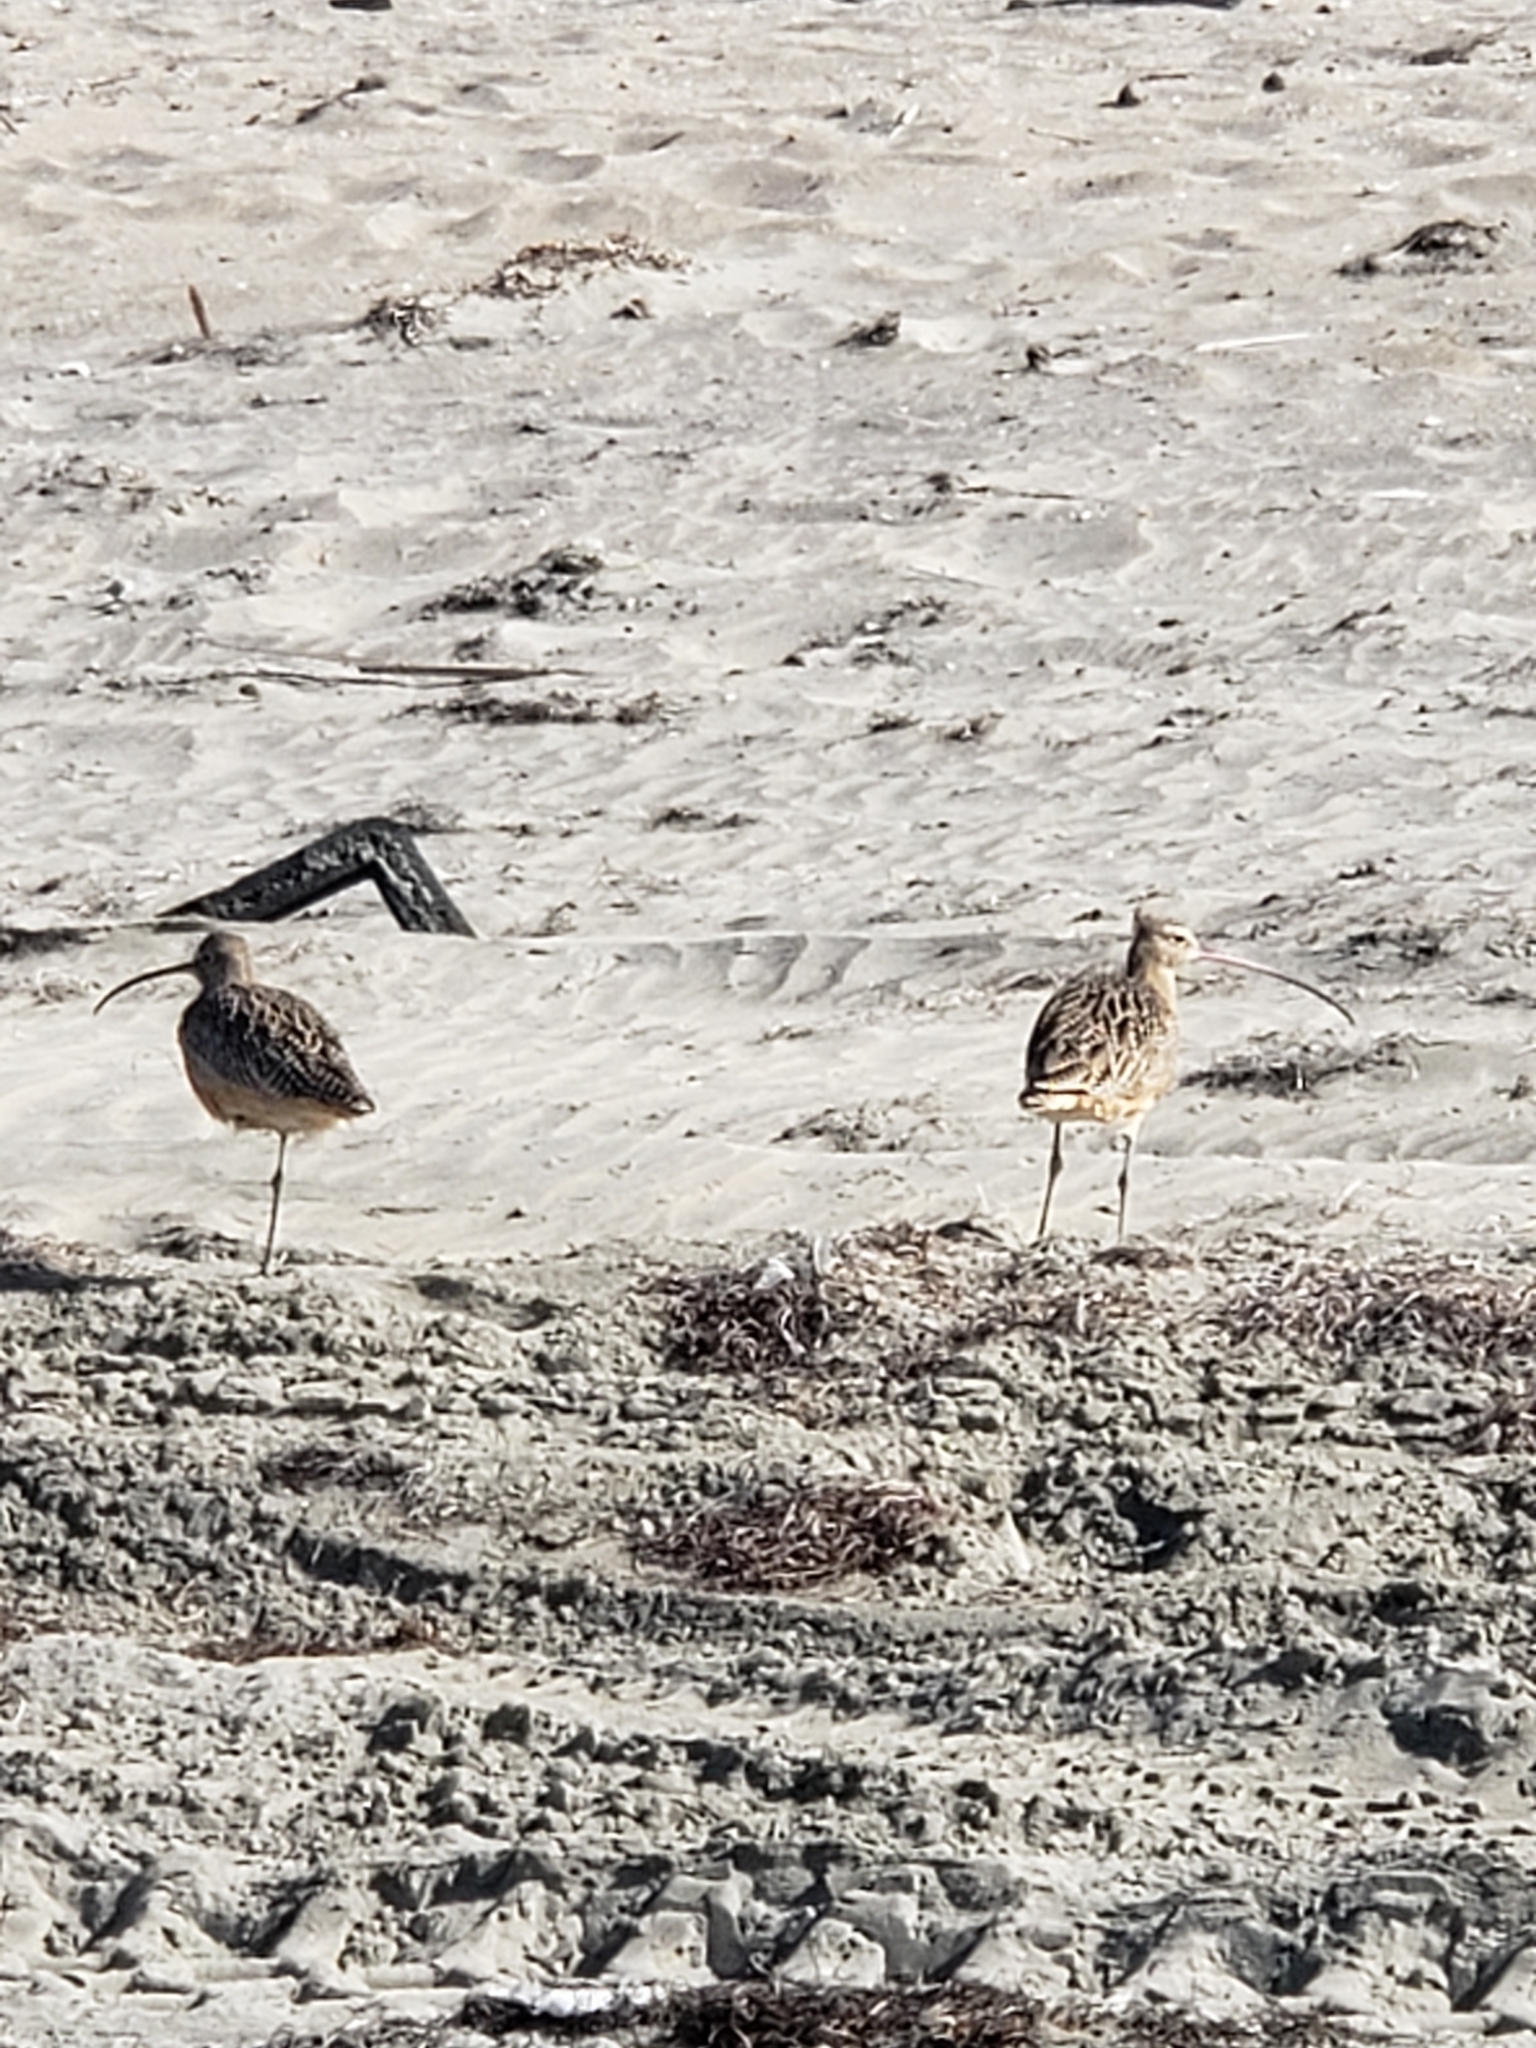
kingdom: Animalia
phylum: Chordata
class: Aves
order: Charadriiformes
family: Scolopacidae
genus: Numenius
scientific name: Numenius americanus
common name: Long-billed curlew
